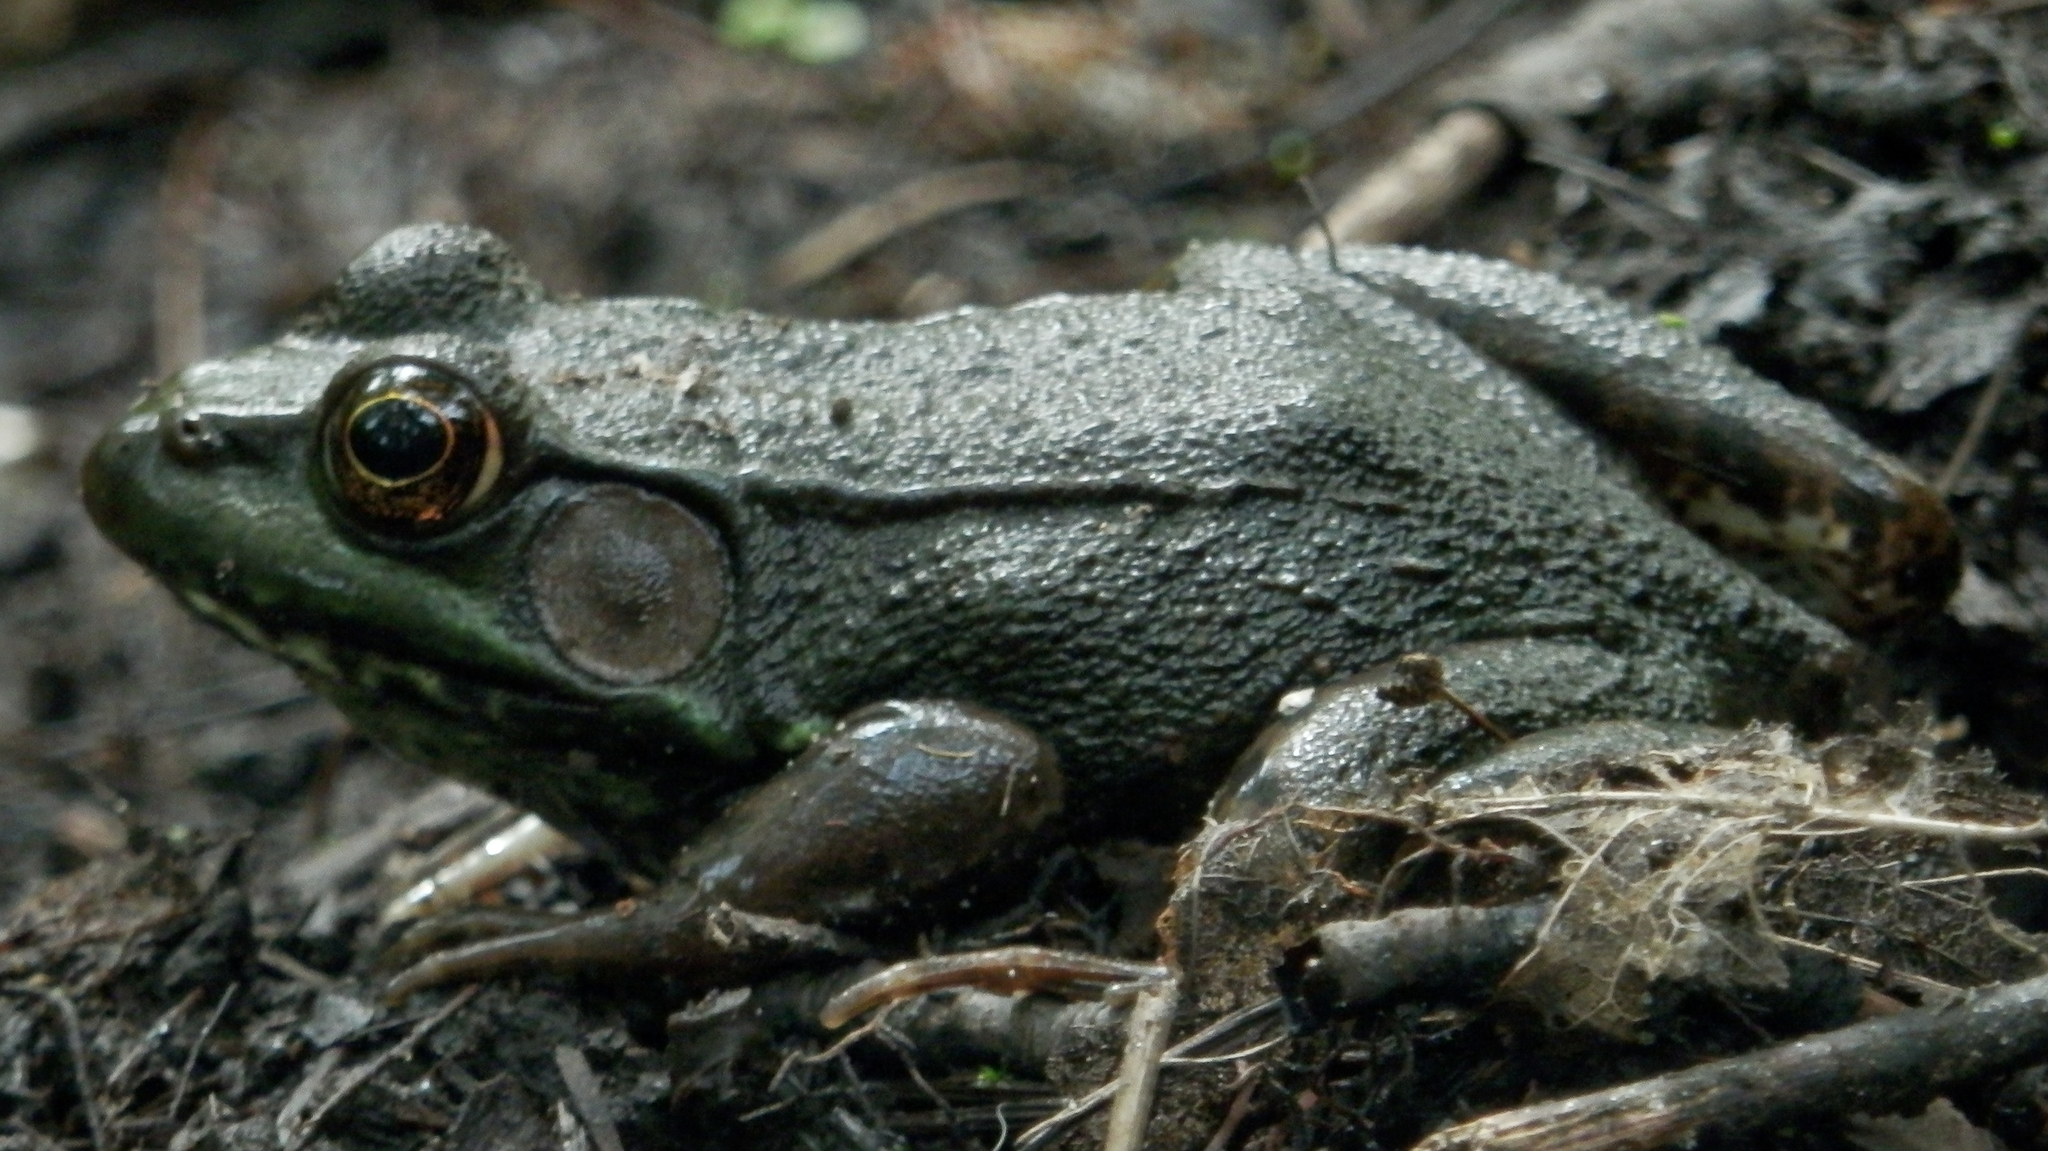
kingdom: Animalia
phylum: Chordata
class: Amphibia
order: Anura
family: Ranidae
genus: Lithobates
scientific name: Lithobates clamitans
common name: Green frog
